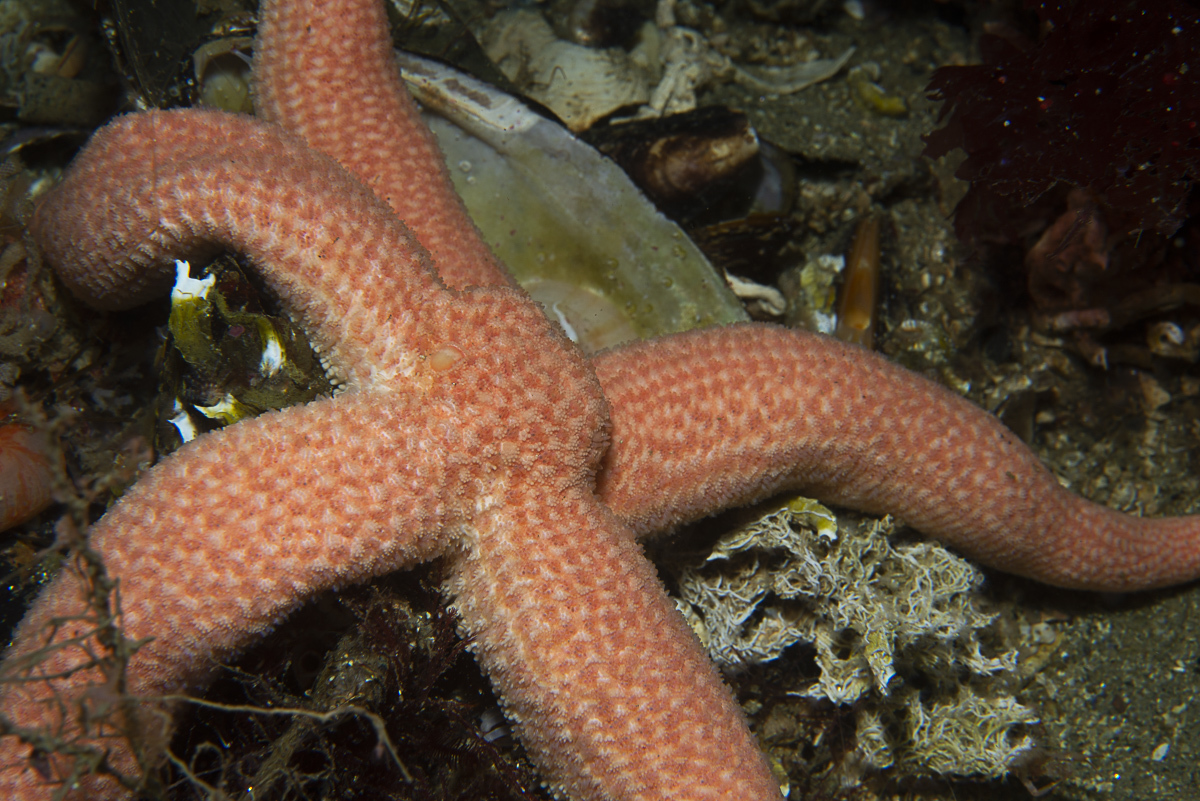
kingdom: Animalia
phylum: Echinodermata
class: Asteroidea
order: Forcipulatida
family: Stichasteridae
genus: Stichastrella
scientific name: Stichastrella rosea
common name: Rosy starfish
